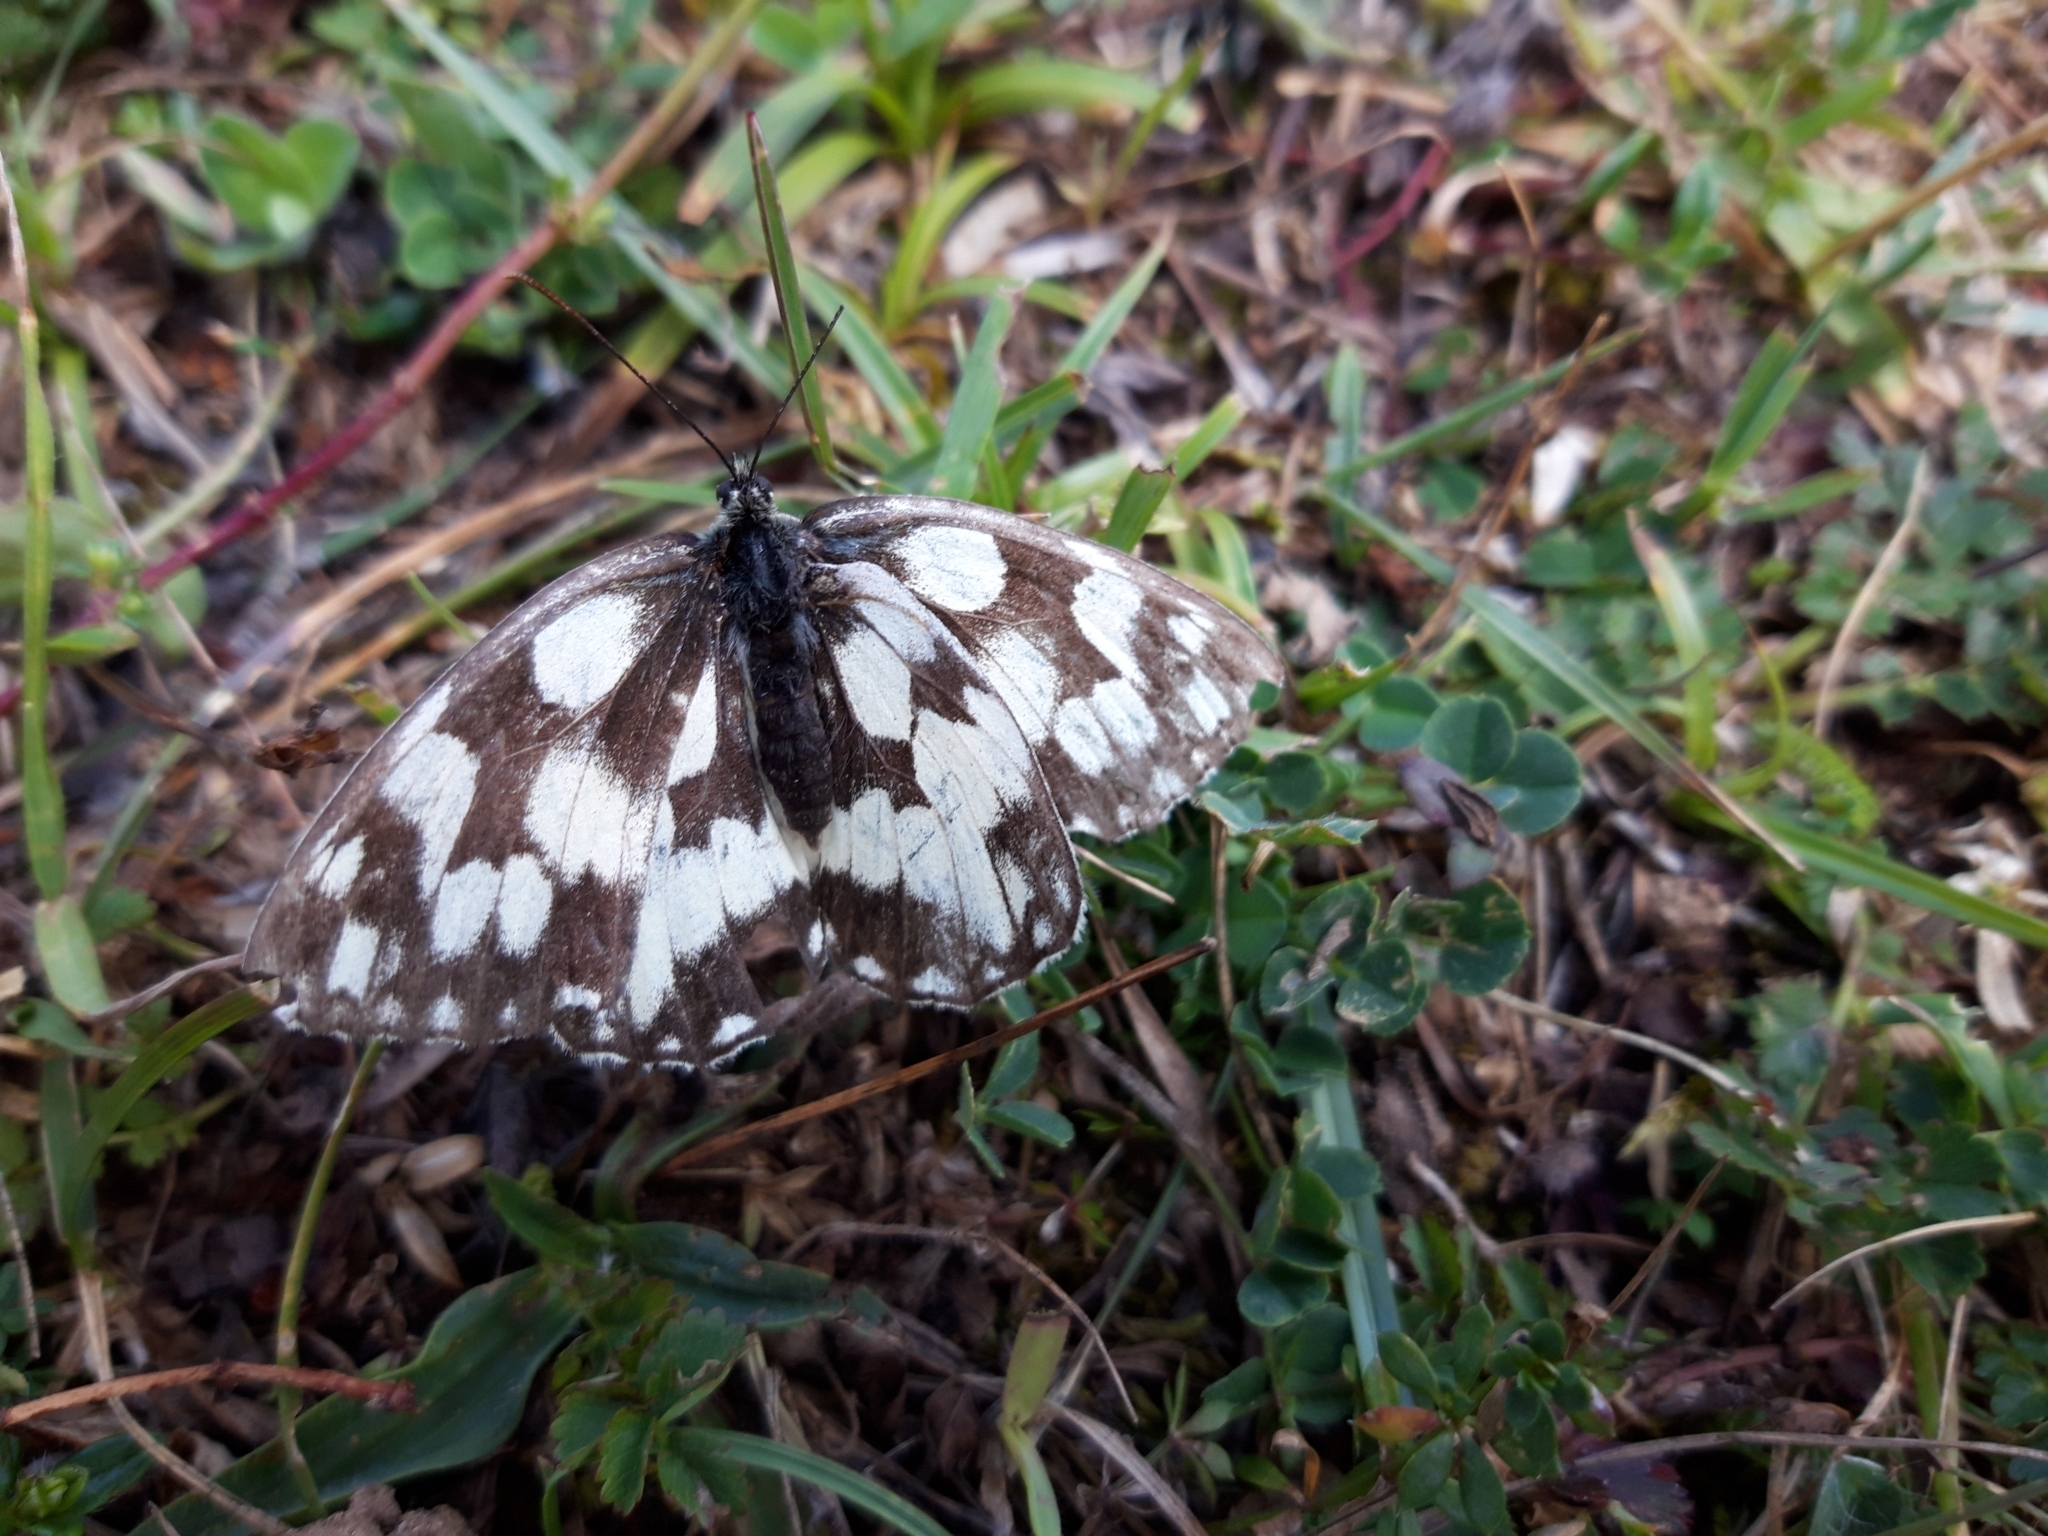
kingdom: Animalia
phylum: Arthropoda
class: Insecta
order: Lepidoptera
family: Nymphalidae
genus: Melanargia
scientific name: Melanargia galathea
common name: Marbled white
